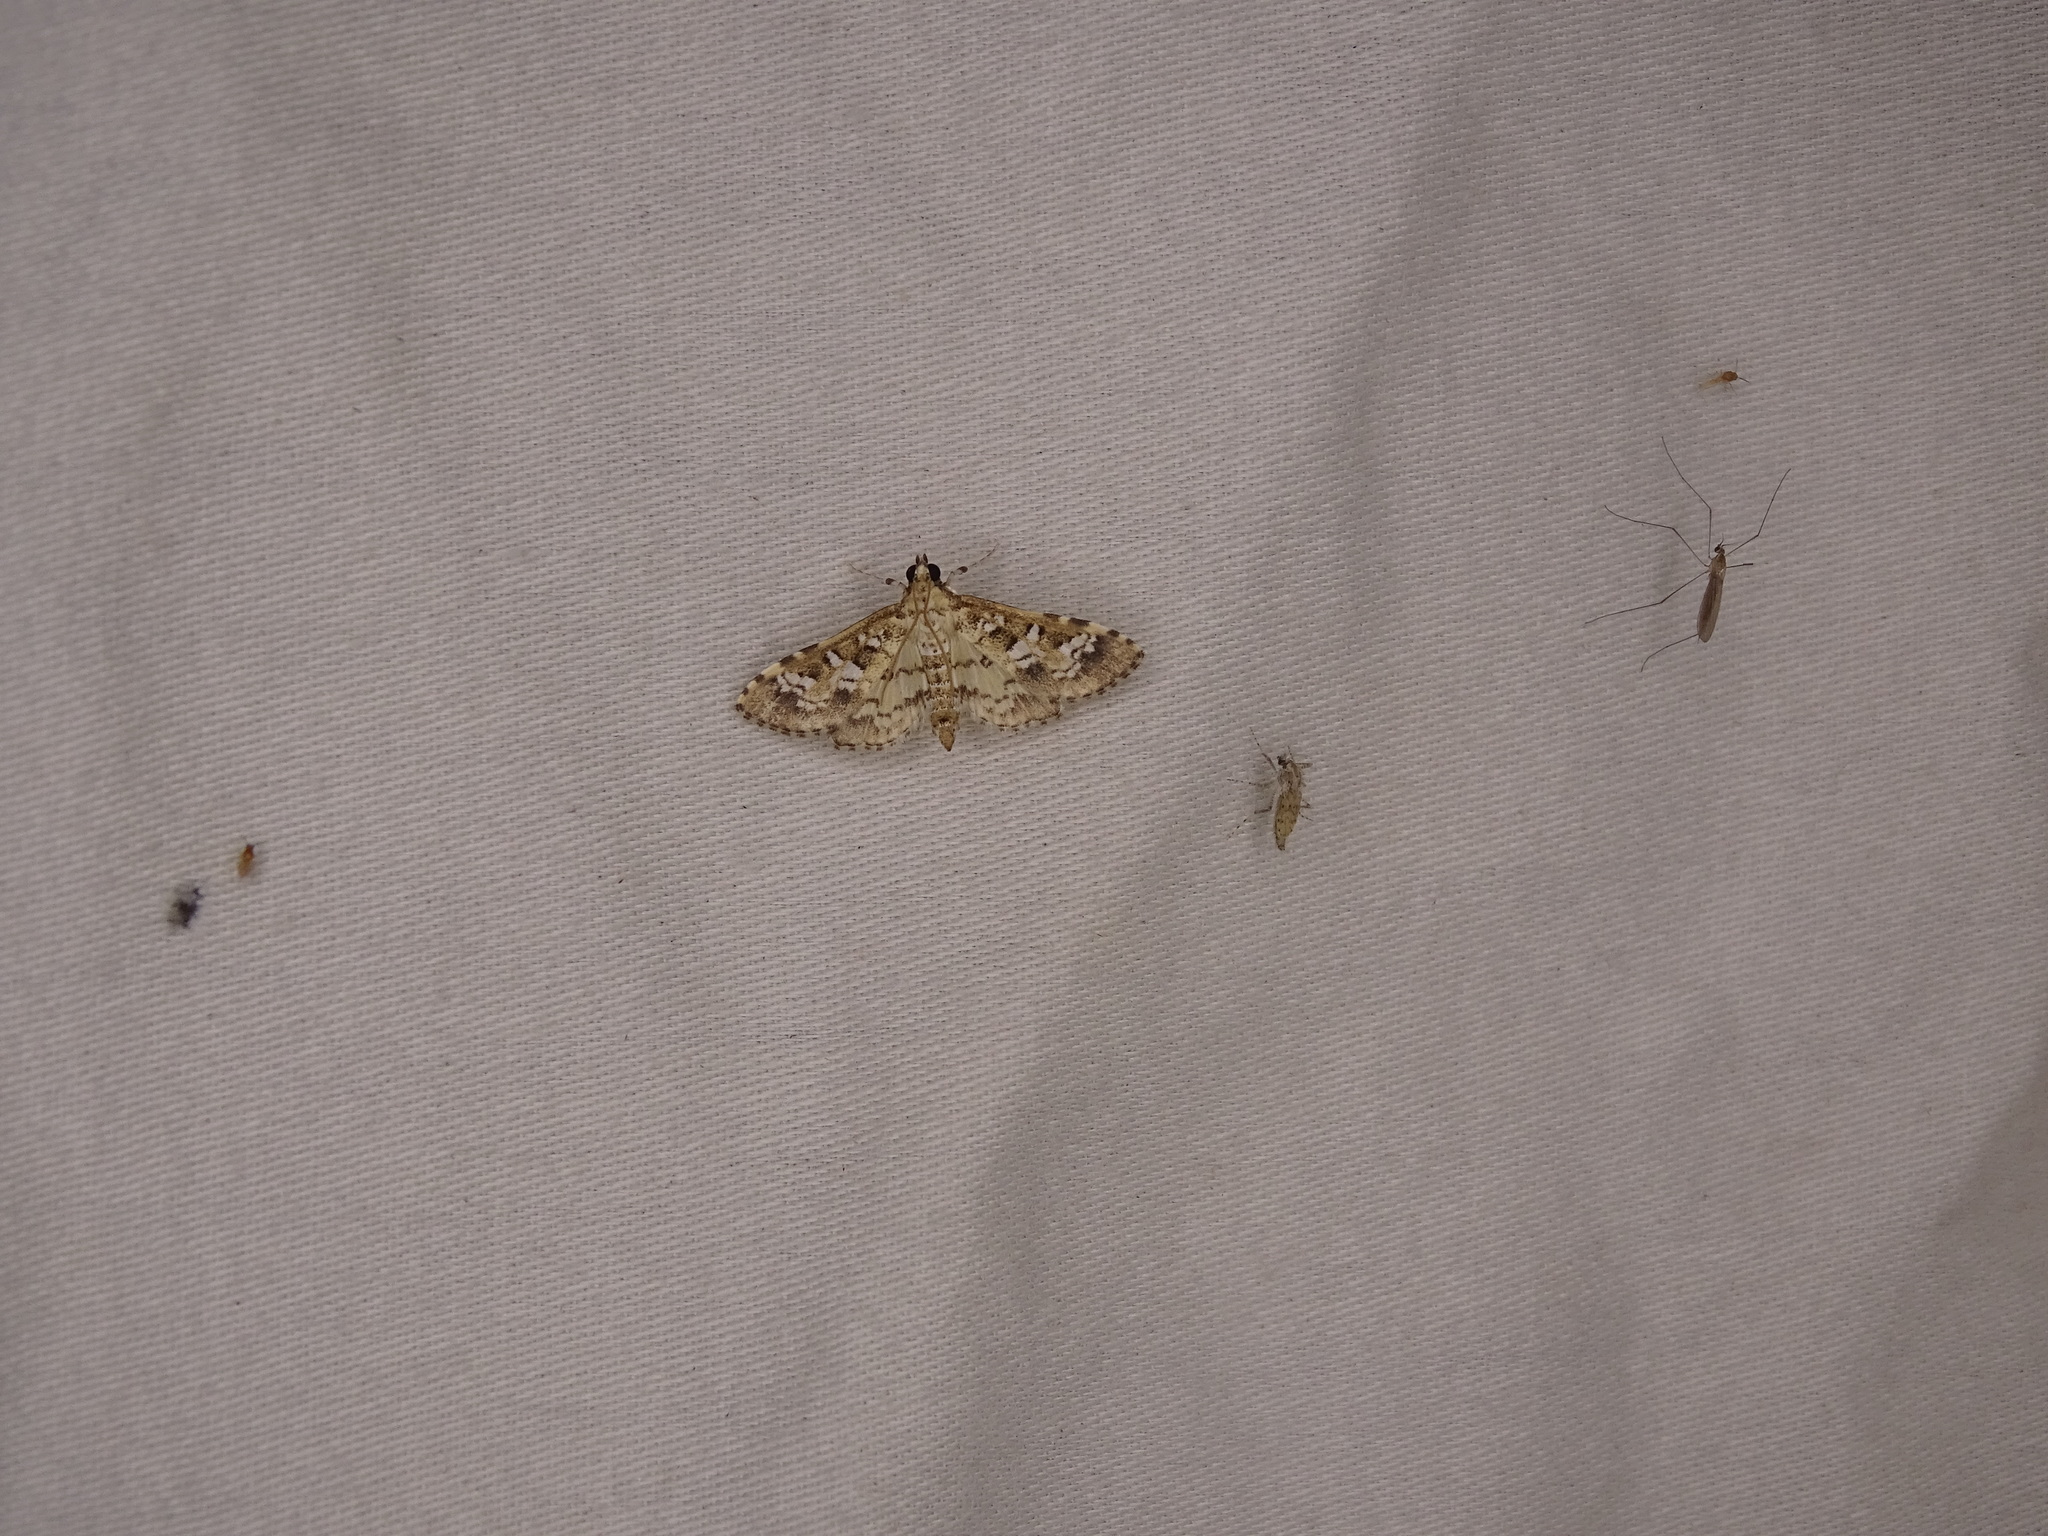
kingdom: Animalia
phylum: Arthropoda
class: Insecta
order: Lepidoptera
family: Crambidae
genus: Samea
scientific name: Samea multiplicalis
